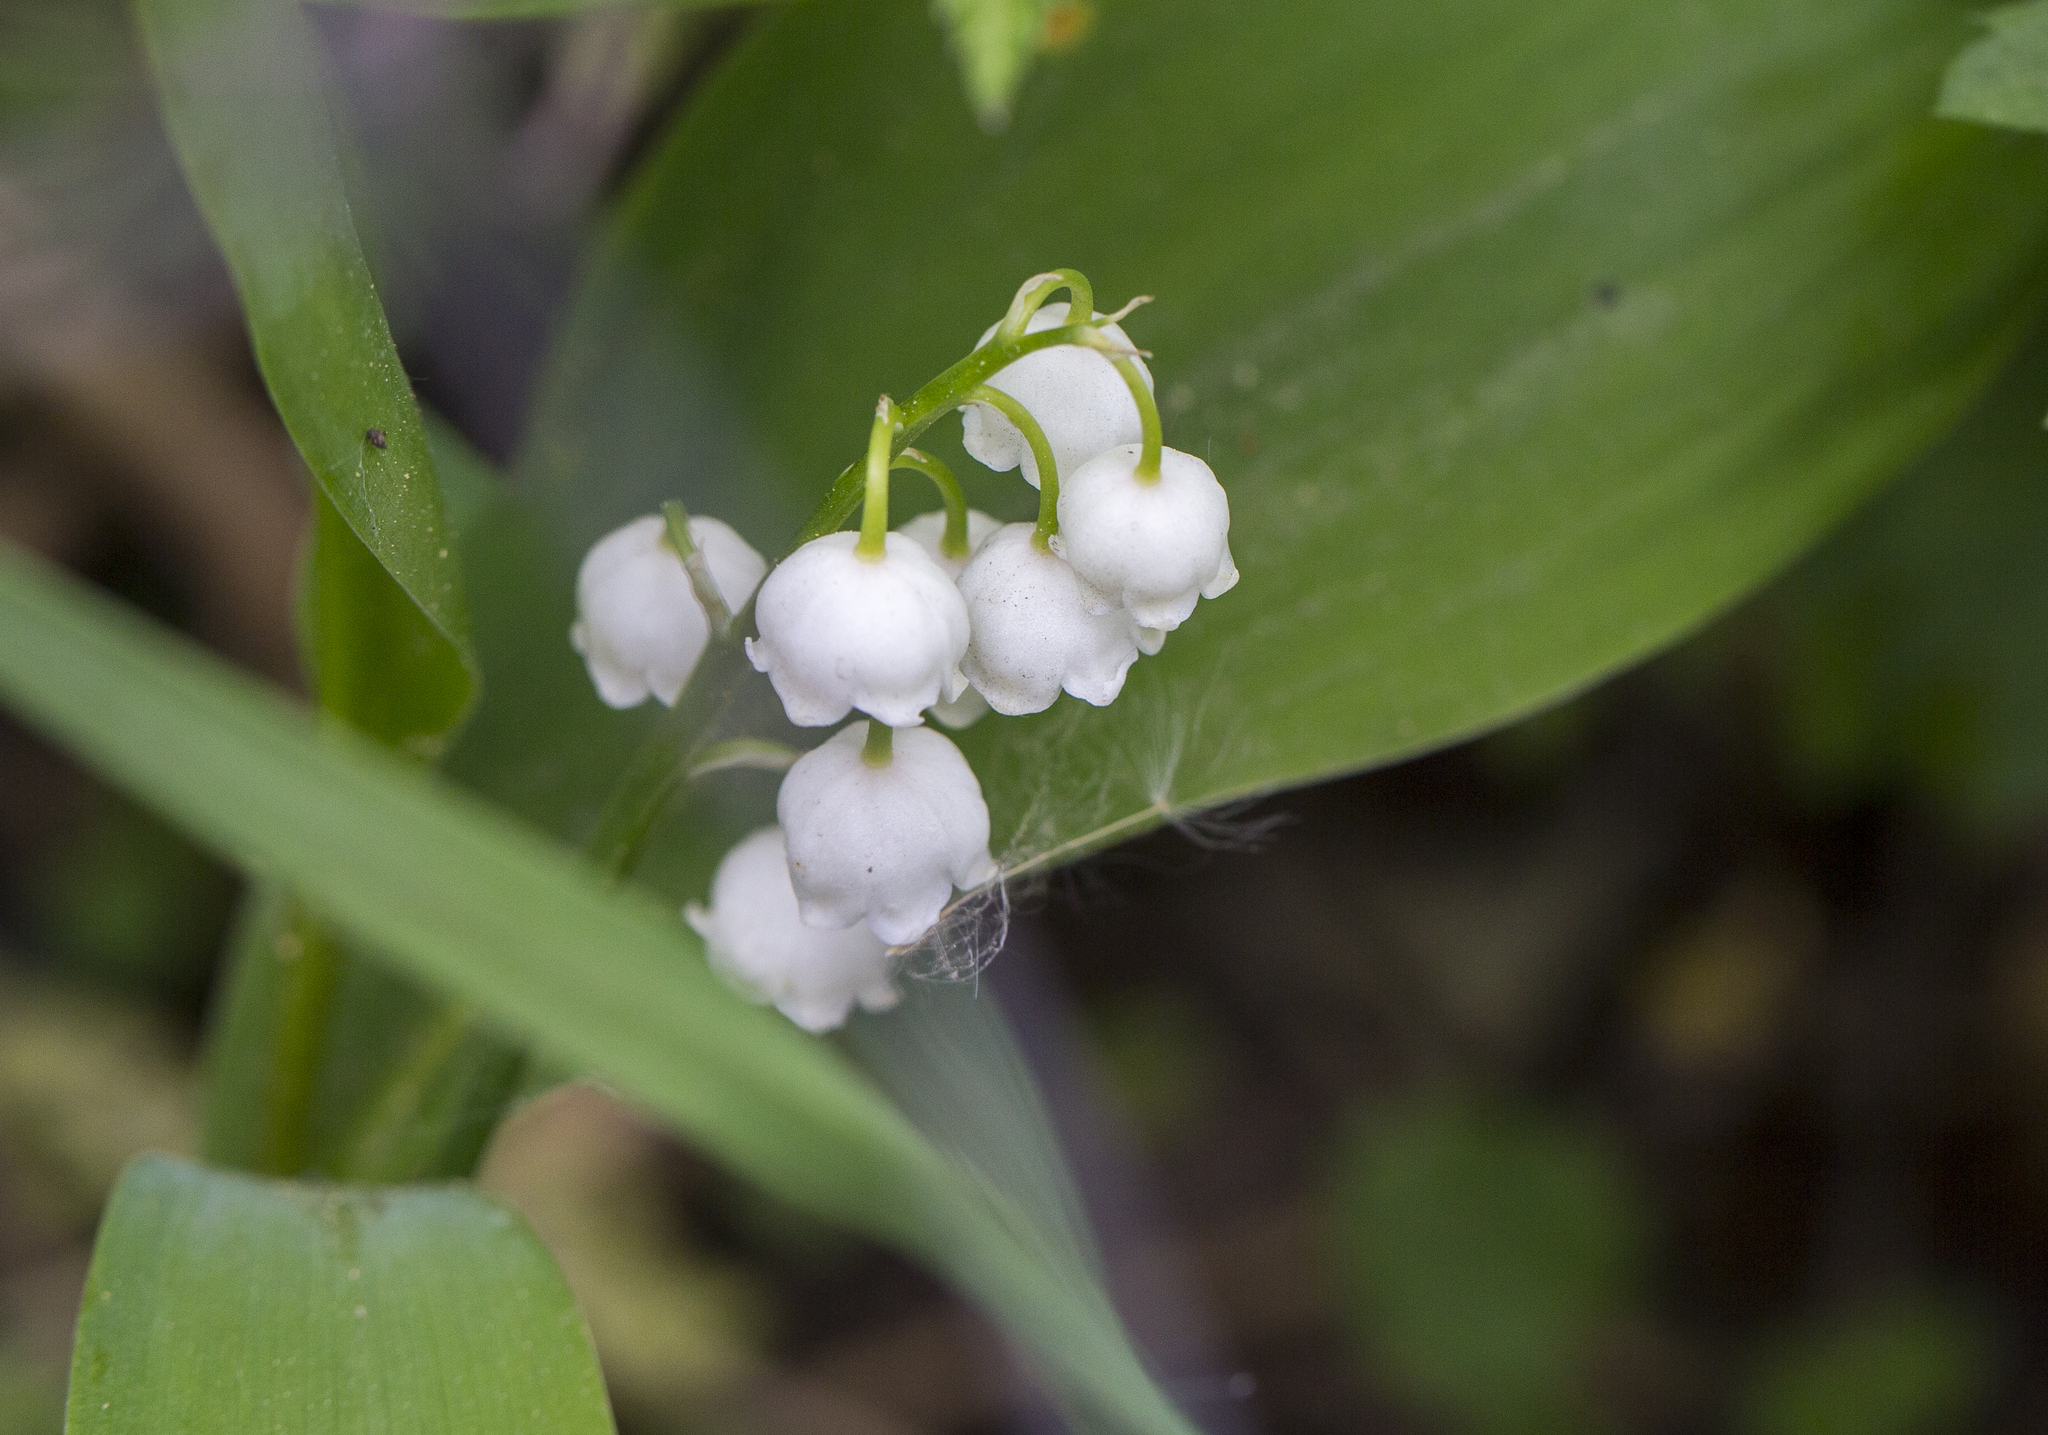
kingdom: Plantae
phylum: Tracheophyta
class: Liliopsida
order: Asparagales
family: Asparagaceae
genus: Convallaria
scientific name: Convallaria majalis
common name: Lily-of-the-valley
